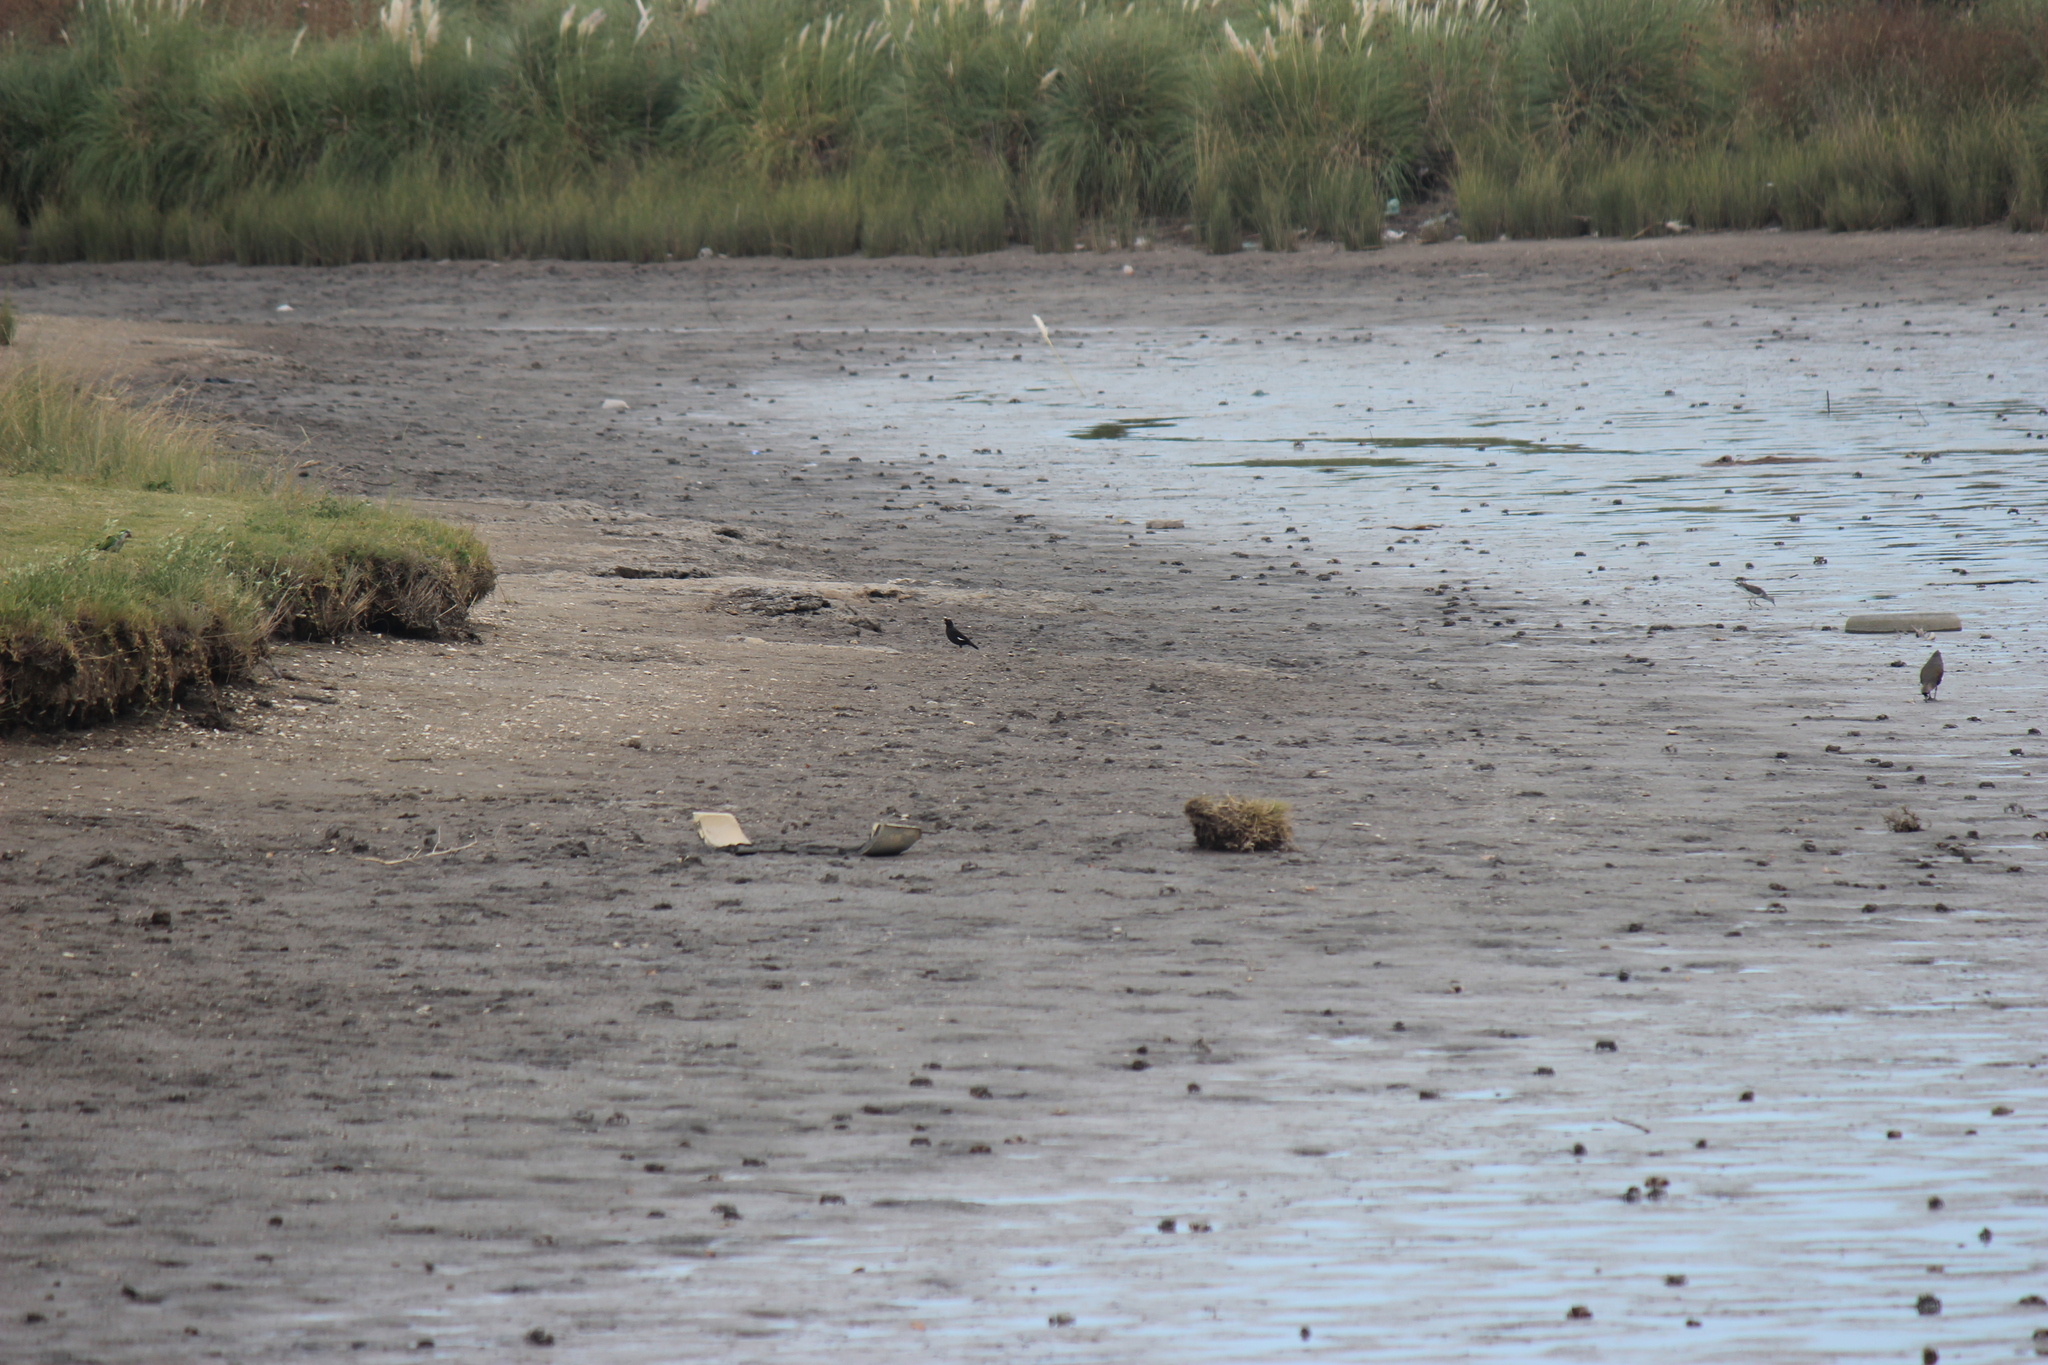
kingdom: Animalia
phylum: Chordata
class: Aves
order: Passeriformes
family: Sturnidae
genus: Acridotheres
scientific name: Acridotheres cristatellus
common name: Crested myna
